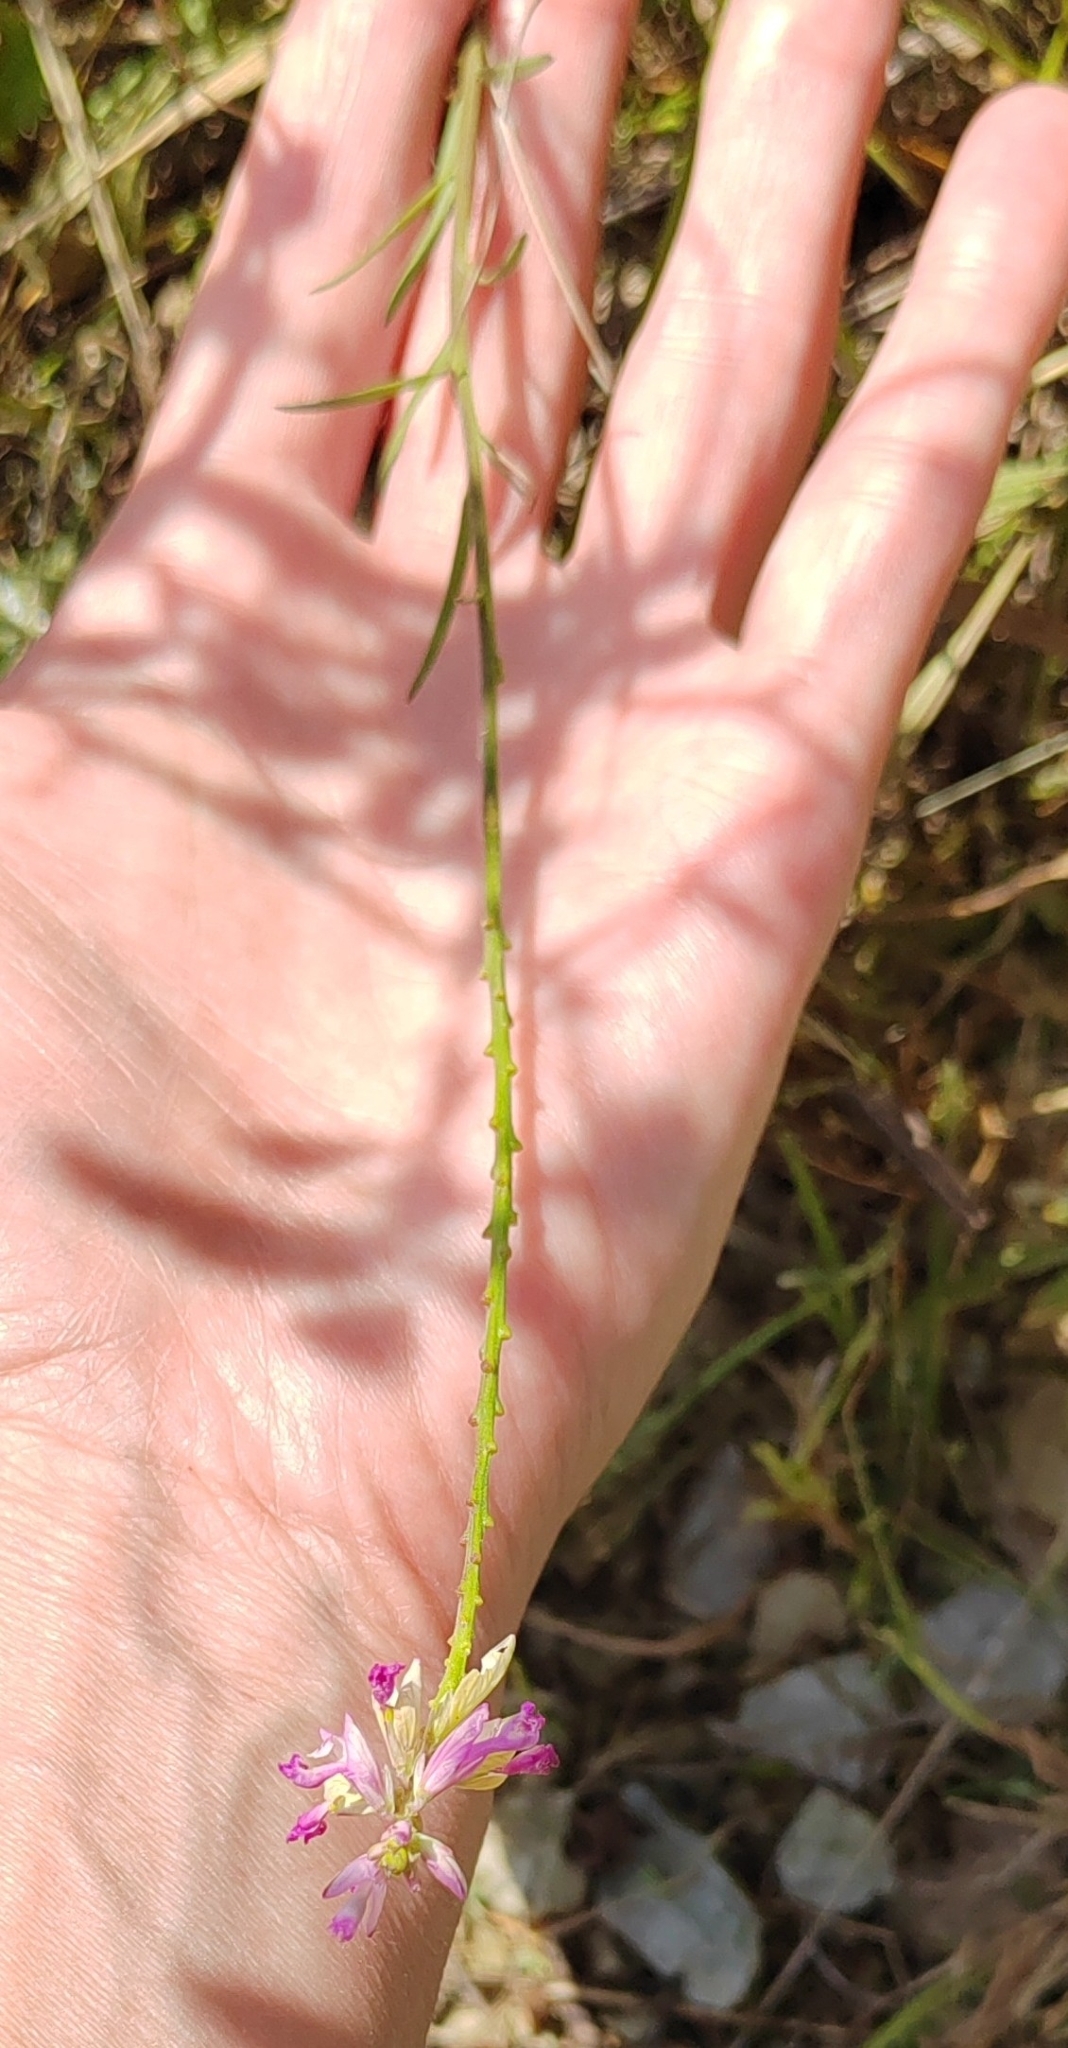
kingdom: Plantae
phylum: Tracheophyta
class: Magnoliopsida
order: Fabales
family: Polygalaceae
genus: Polygala
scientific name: Polygala major
